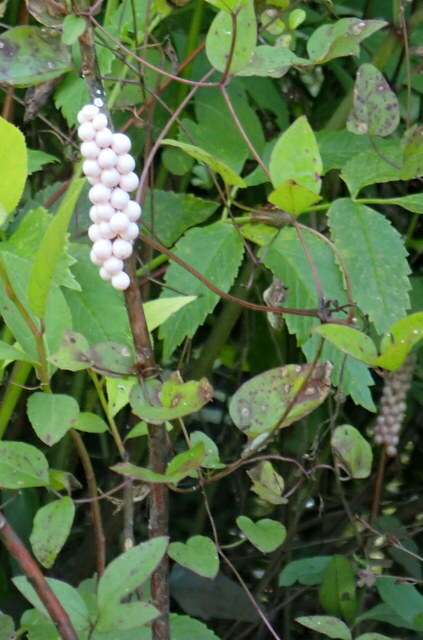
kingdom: Animalia
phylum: Mollusca
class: Gastropoda
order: Architaenioglossa
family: Ampullariidae
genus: Pomacea
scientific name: Pomacea paludosa
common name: Florida applesnail
